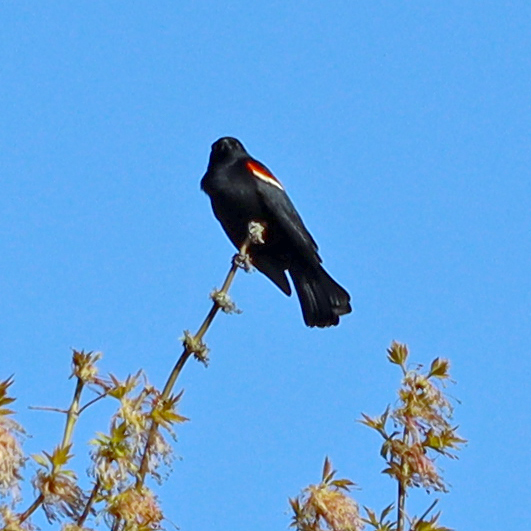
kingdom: Animalia
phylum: Chordata
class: Aves
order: Passeriformes
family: Icteridae
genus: Agelaius
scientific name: Agelaius phoeniceus
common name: Red-winged blackbird
